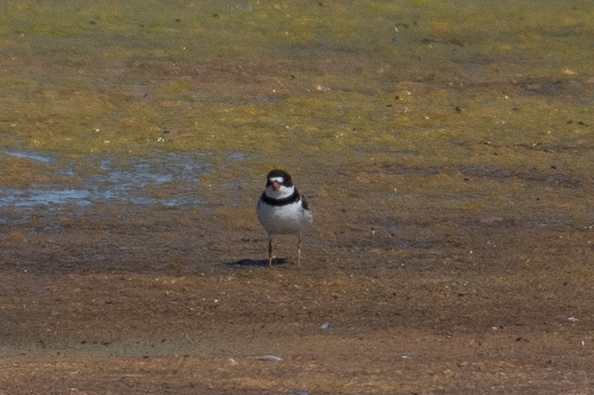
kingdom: Animalia
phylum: Chordata
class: Aves
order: Charadriiformes
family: Charadriidae
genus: Charadrius
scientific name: Charadrius semipalmatus
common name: Semipalmated plover
